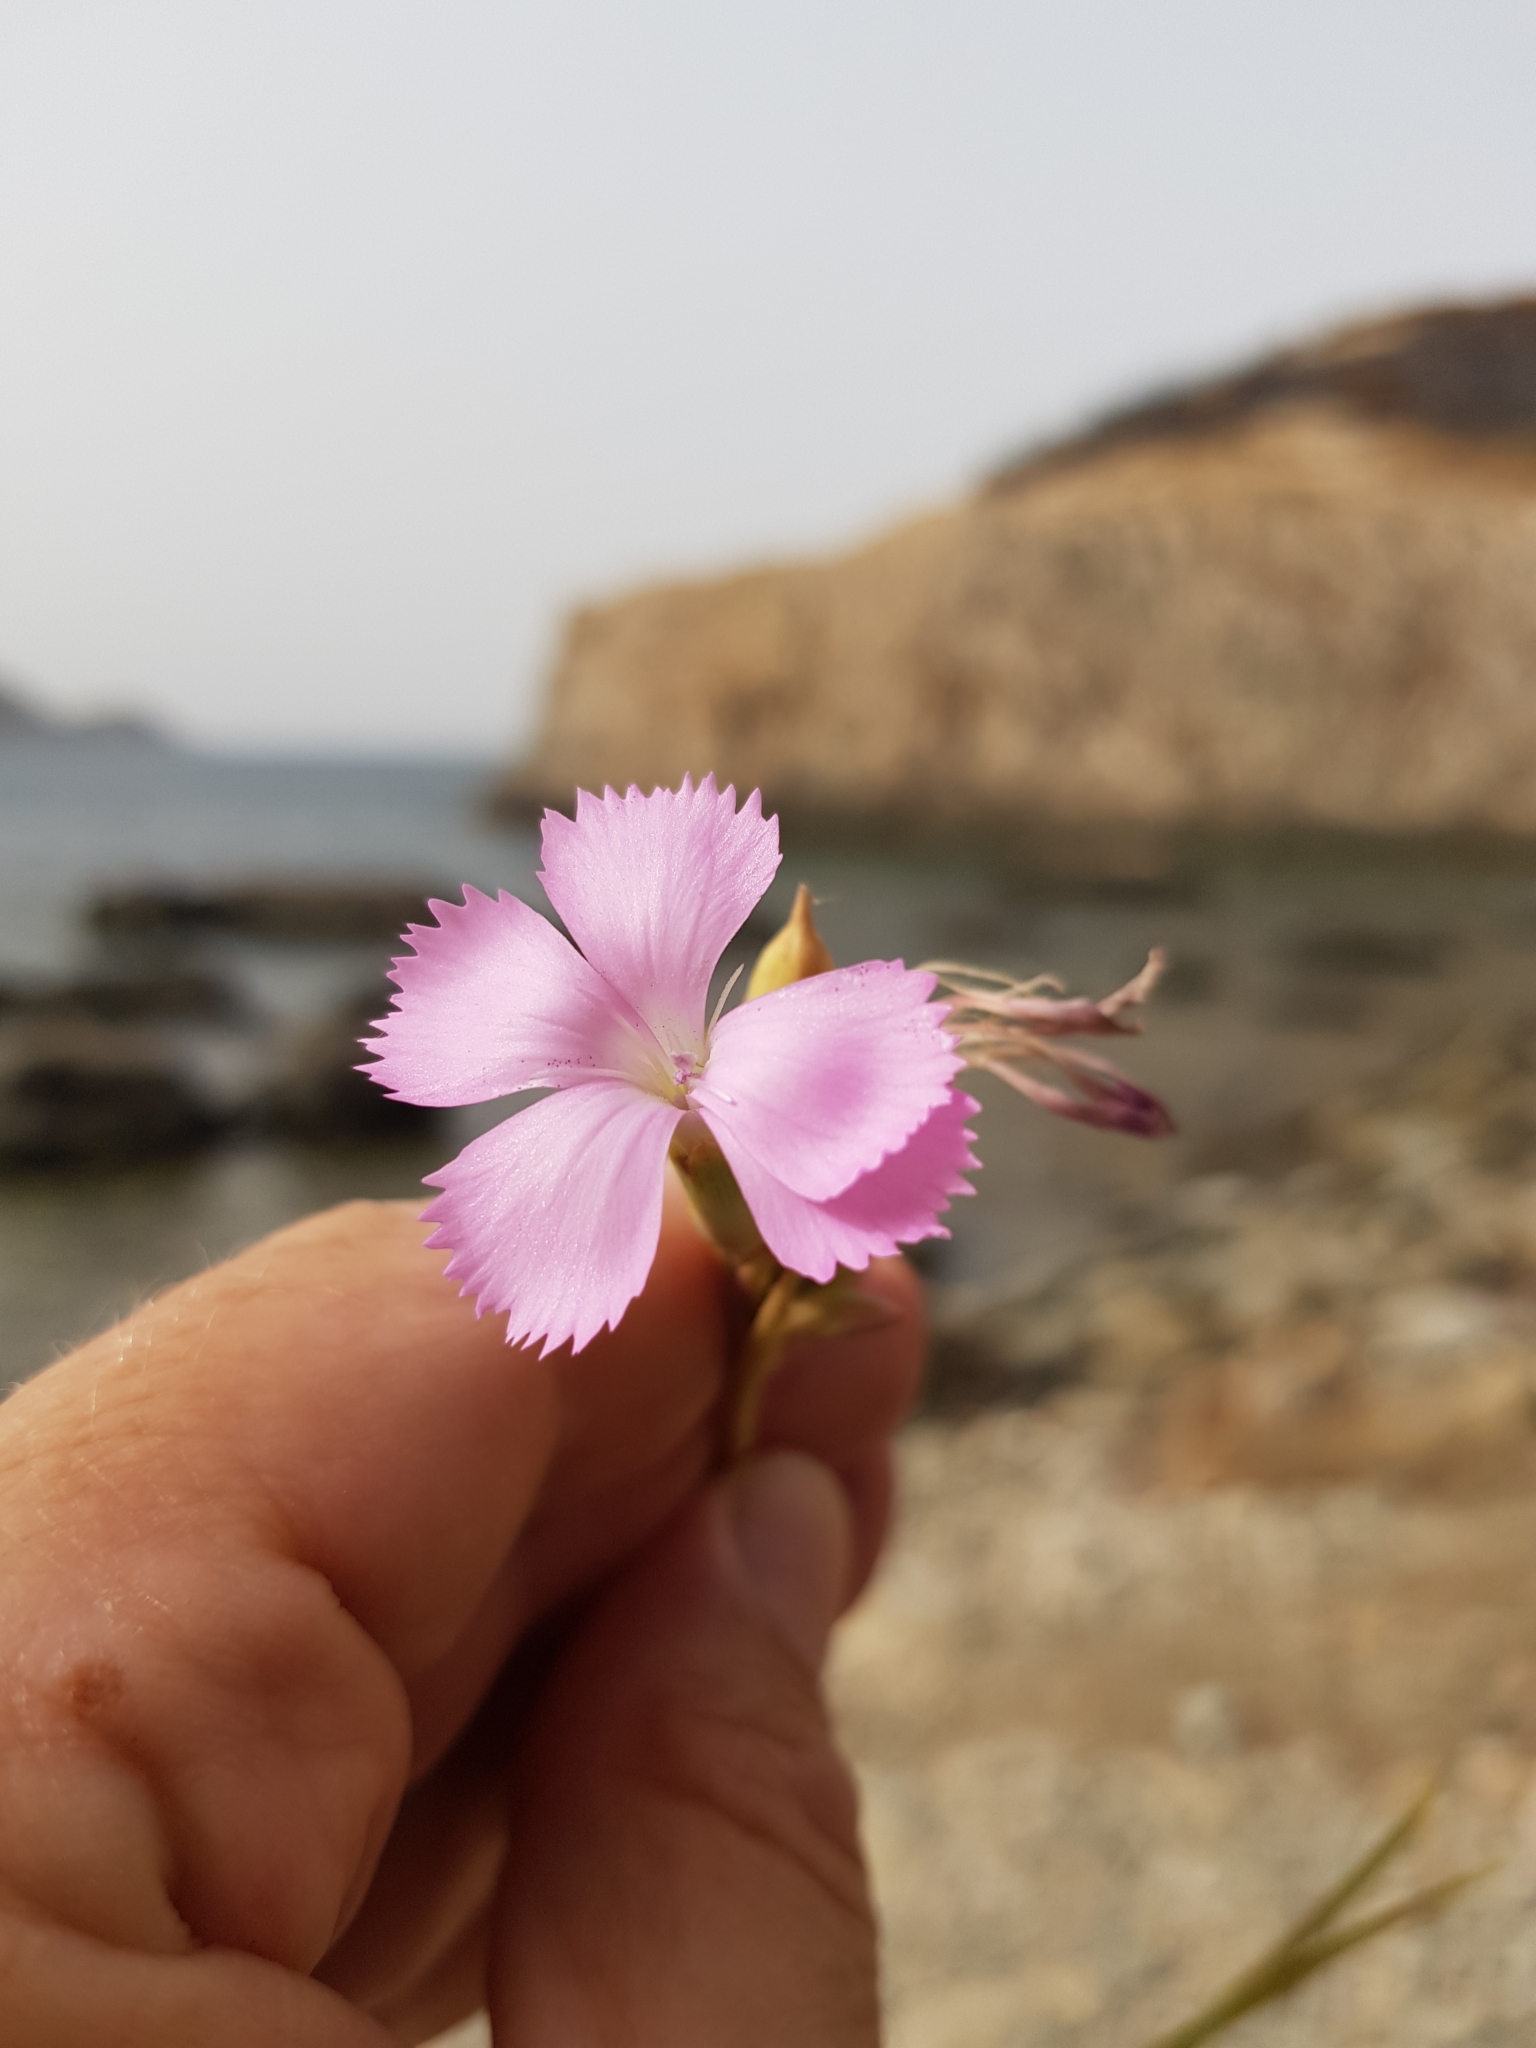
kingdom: Plantae
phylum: Tracheophyta
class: Magnoliopsida
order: Caryophyllales
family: Caryophyllaceae
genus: Dianthus
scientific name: Dianthus sylvestris
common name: Wood pink
